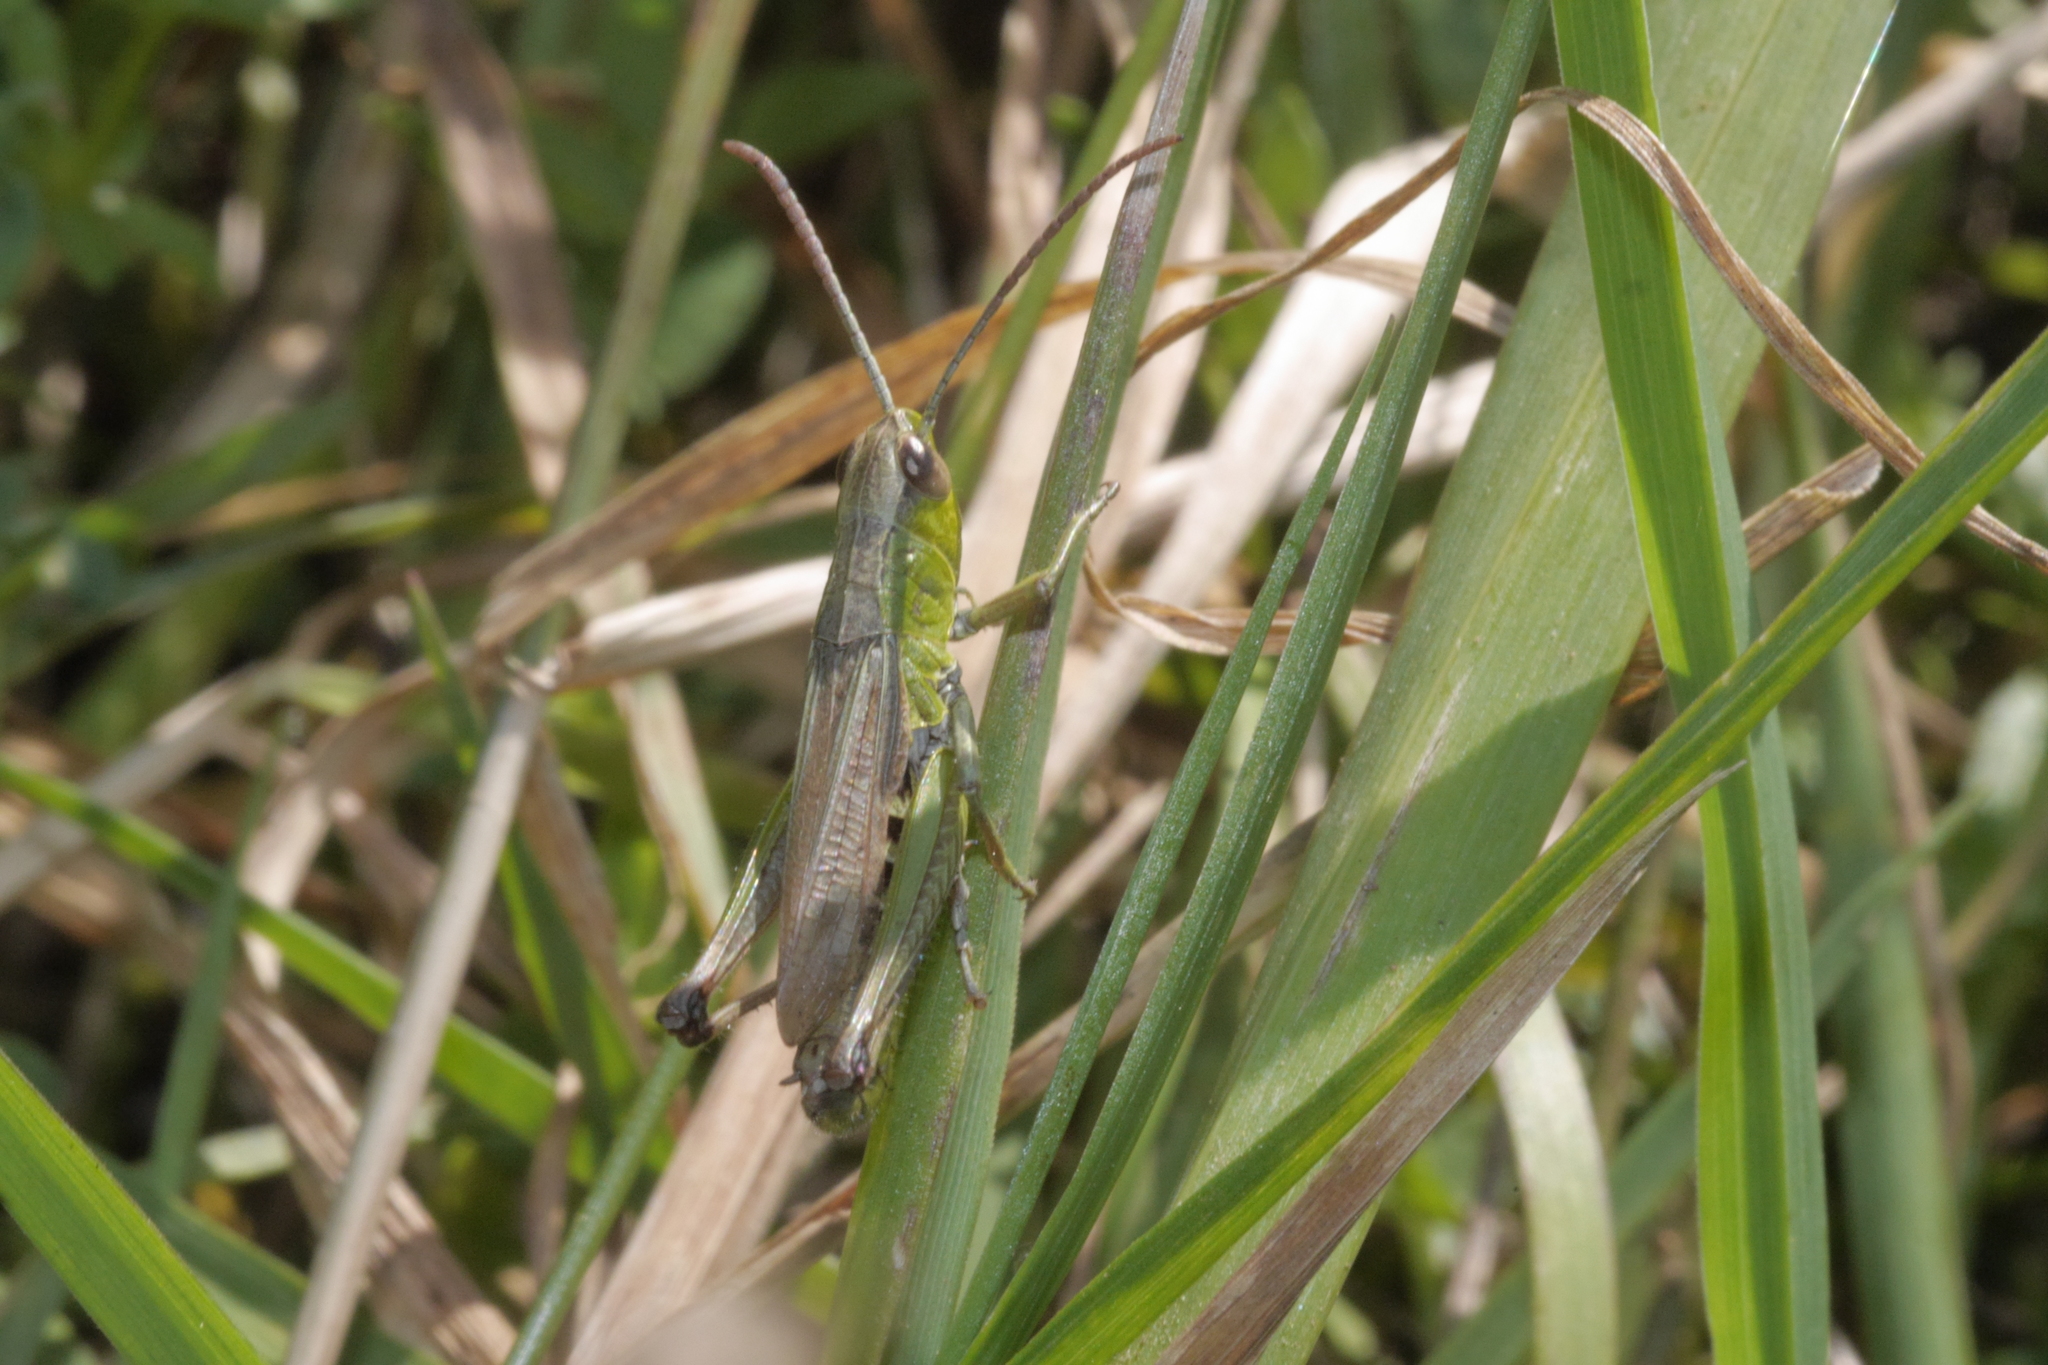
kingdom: Animalia
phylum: Arthropoda
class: Insecta
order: Orthoptera
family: Acrididae
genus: Pseudochorthippus
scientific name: Pseudochorthippus parallelus
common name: Meadow grasshopper
